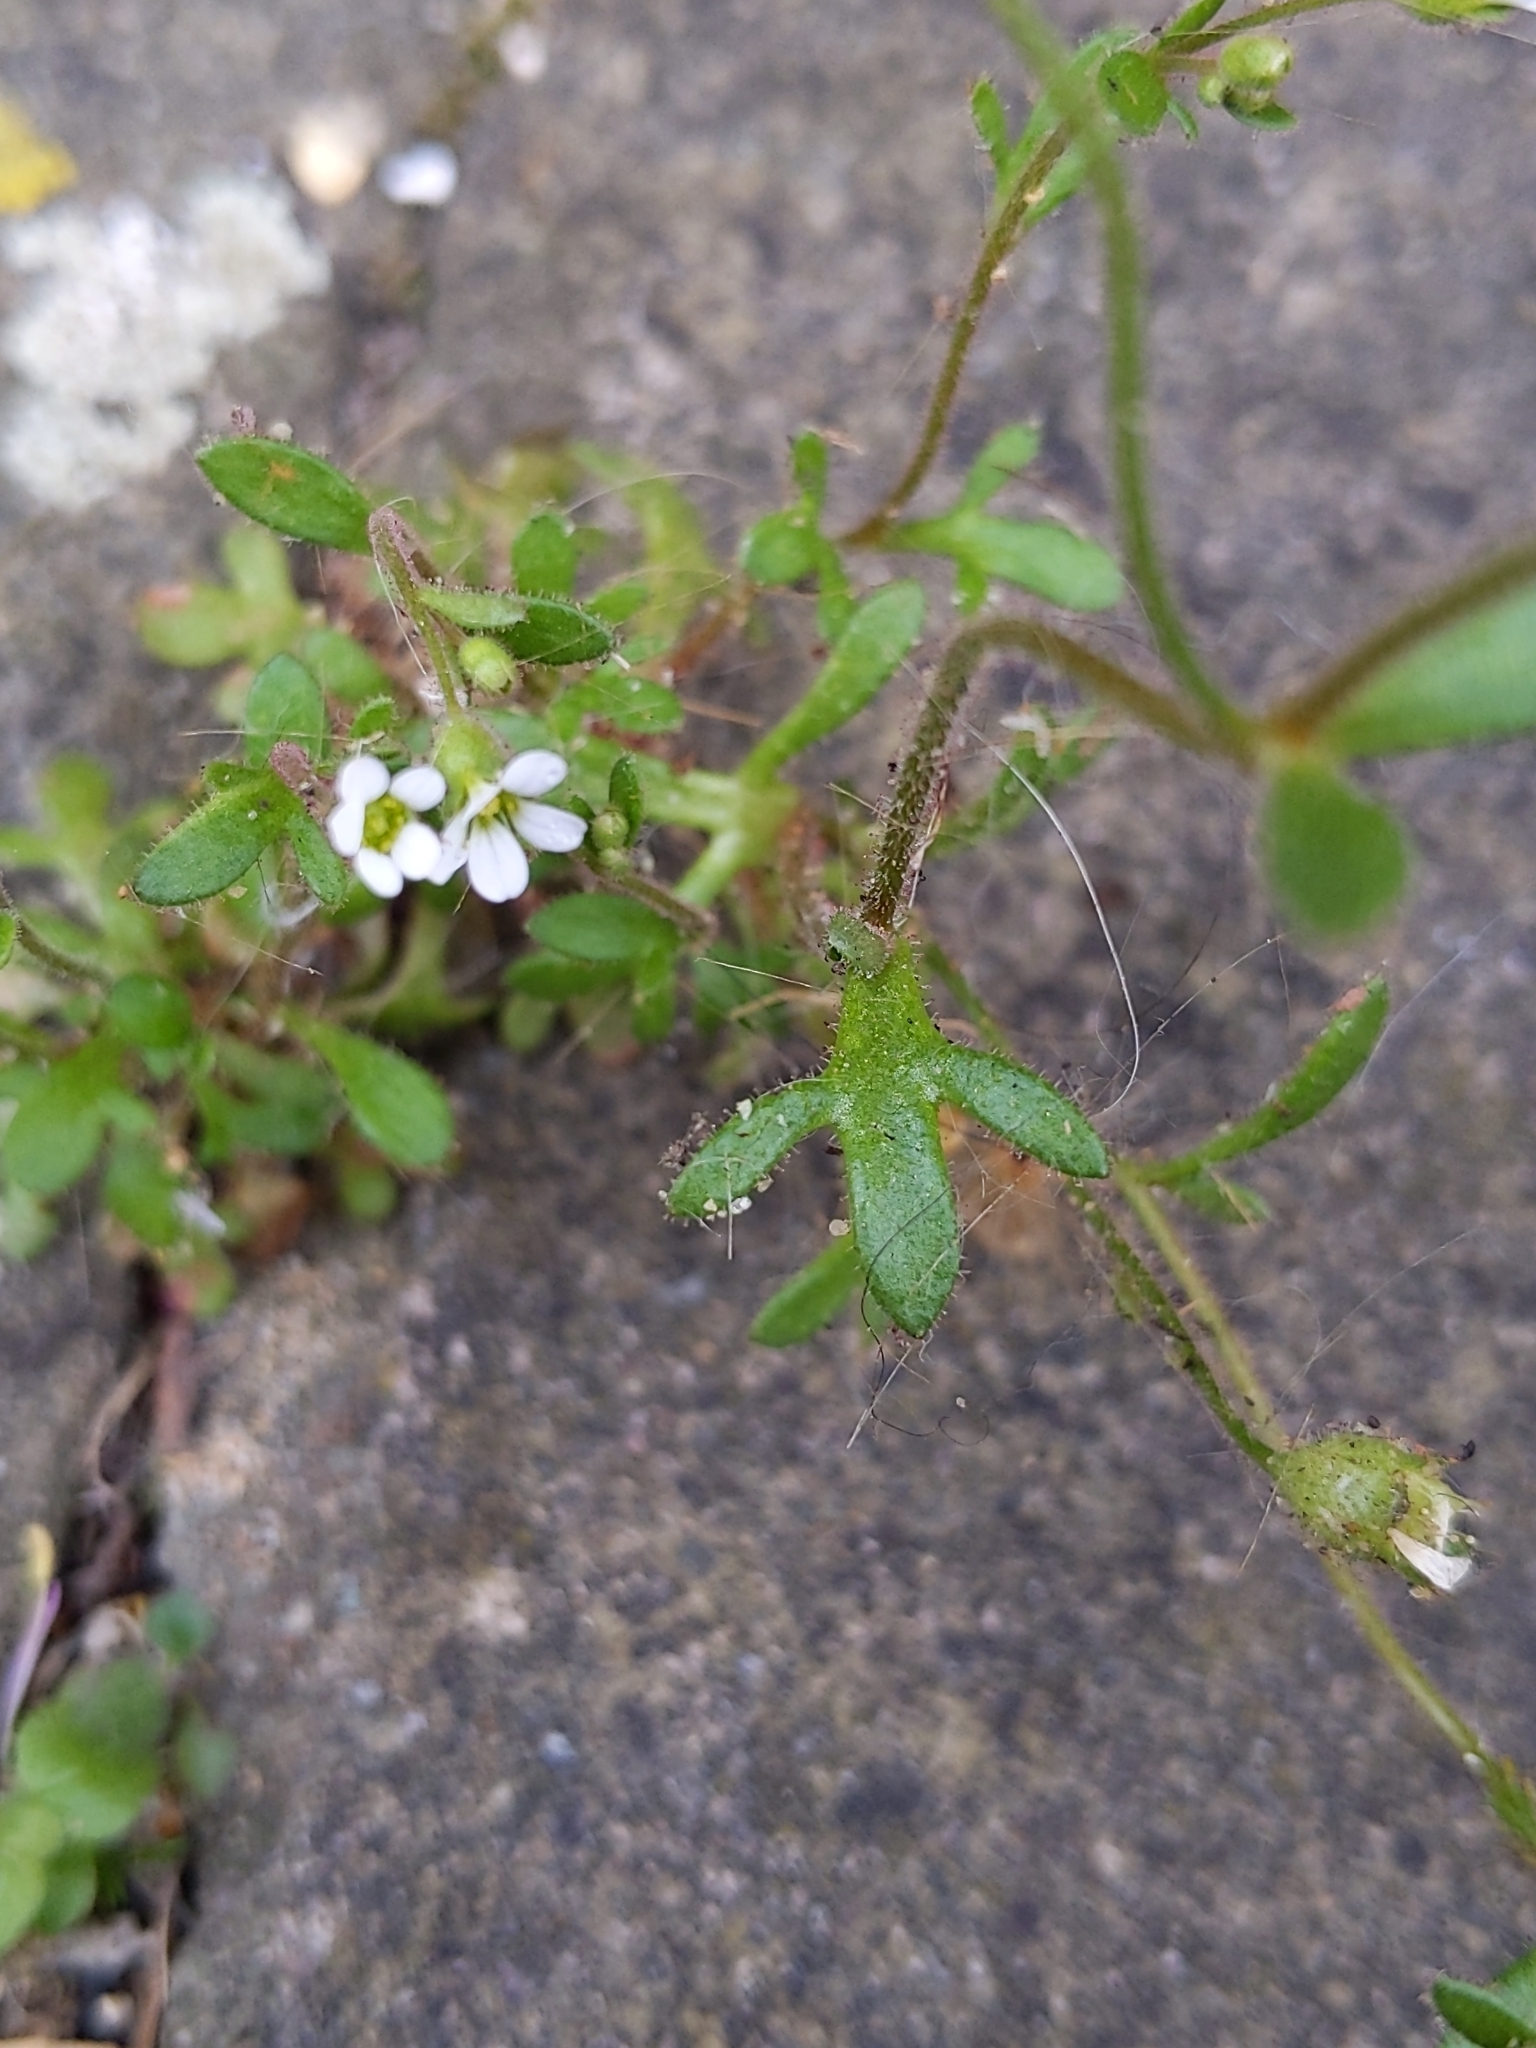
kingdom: Plantae
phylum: Tracheophyta
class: Magnoliopsida
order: Saxifragales
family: Saxifragaceae
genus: Saxifraga
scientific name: Saxifraga tridactylites
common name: Rue-leaved saxifrage
